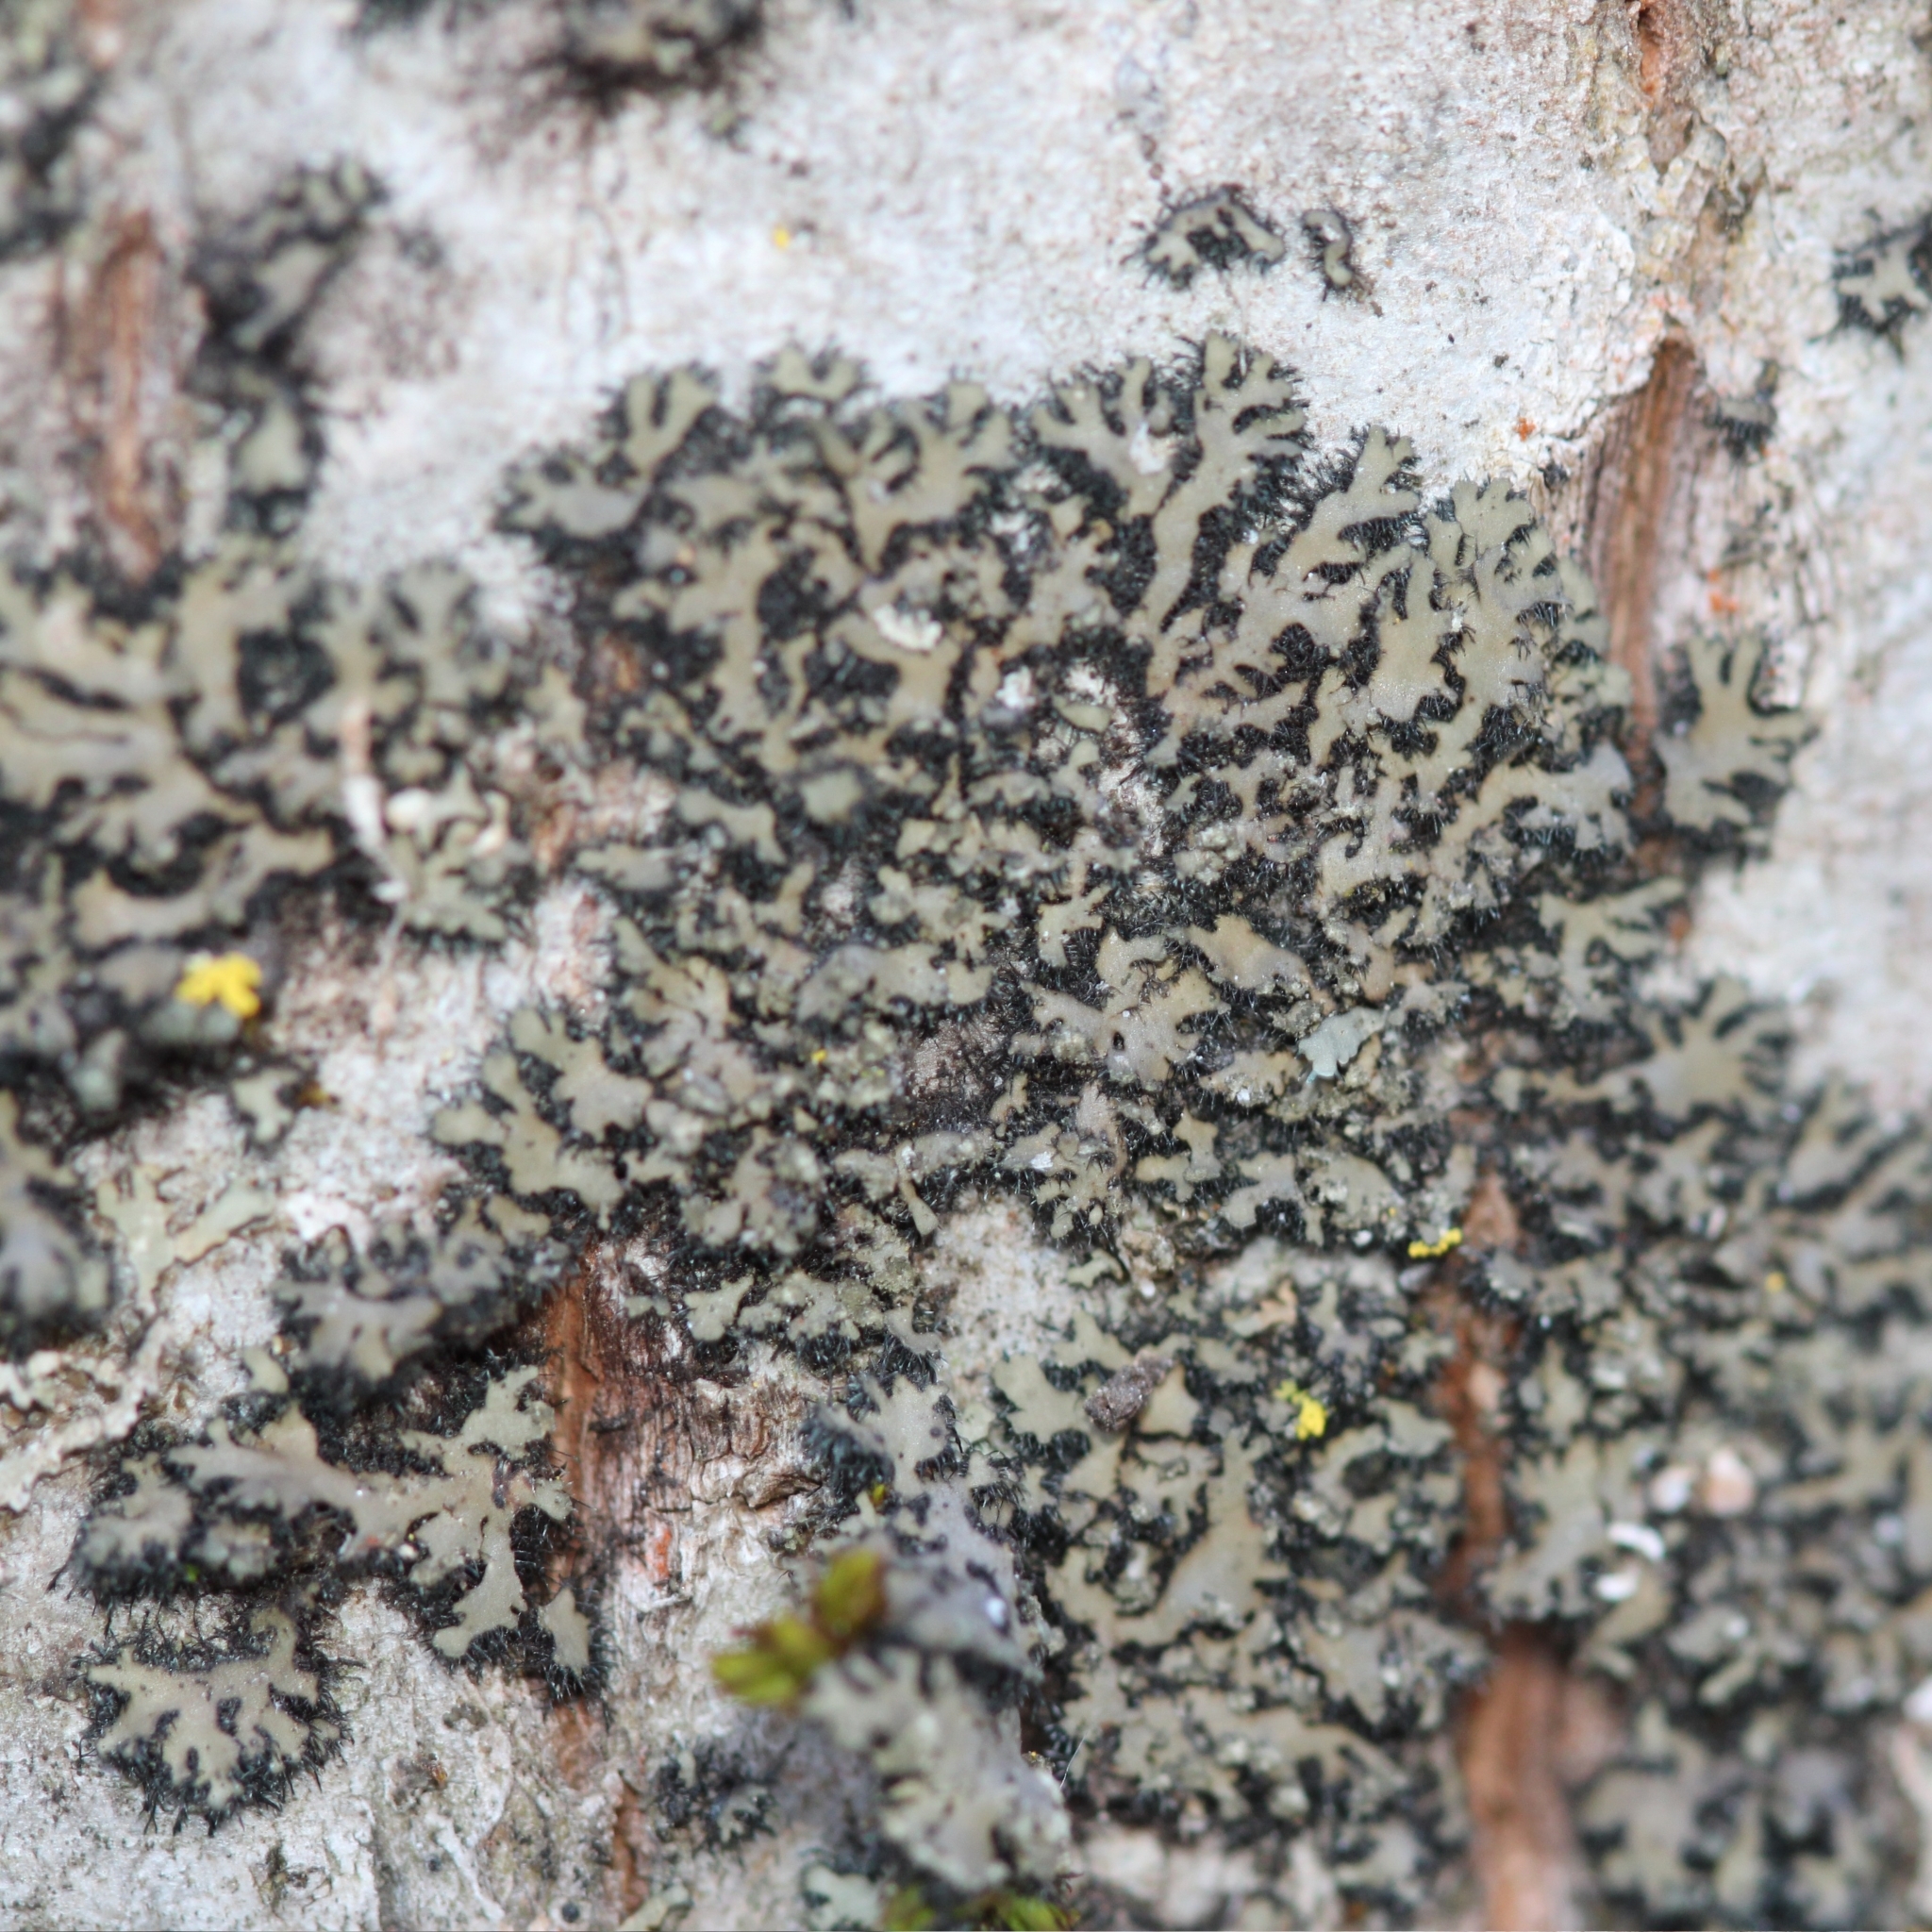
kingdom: Fungi
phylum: Ascomycota
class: Lecanoromycetes
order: Caliciales
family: Physciaceae
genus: Phaeophyscia
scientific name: Phaeophyscia rubropulchra
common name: Orange-cored shadow lichen
